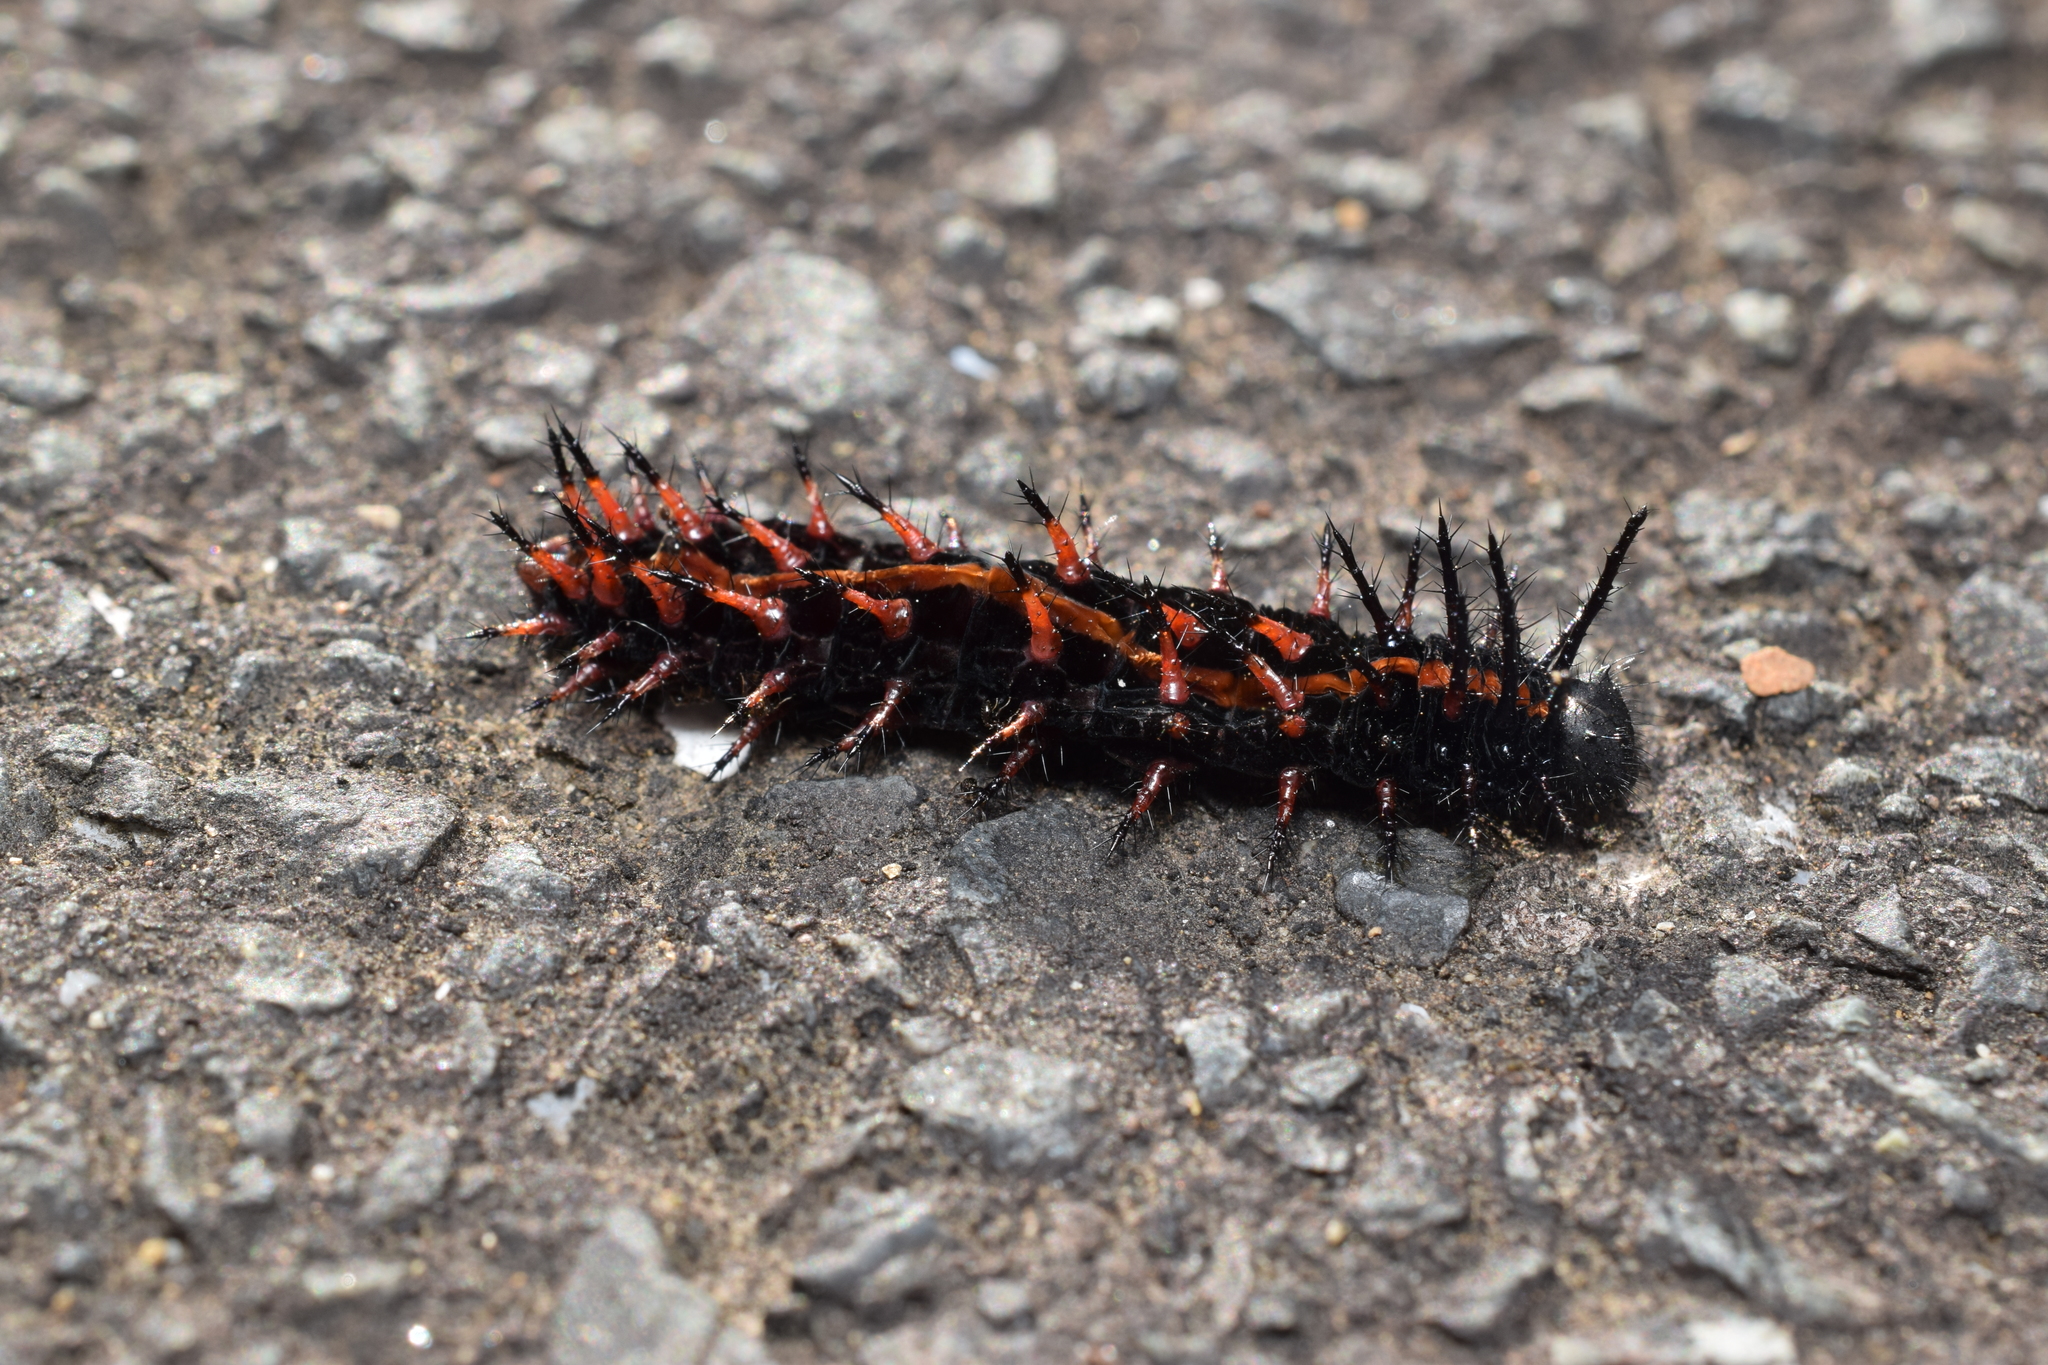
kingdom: Animalia
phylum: Arthropoda
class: Insecta
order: Lepidoptera
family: Nymphalidae
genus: Argynnis
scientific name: Argynnis hyperbius
